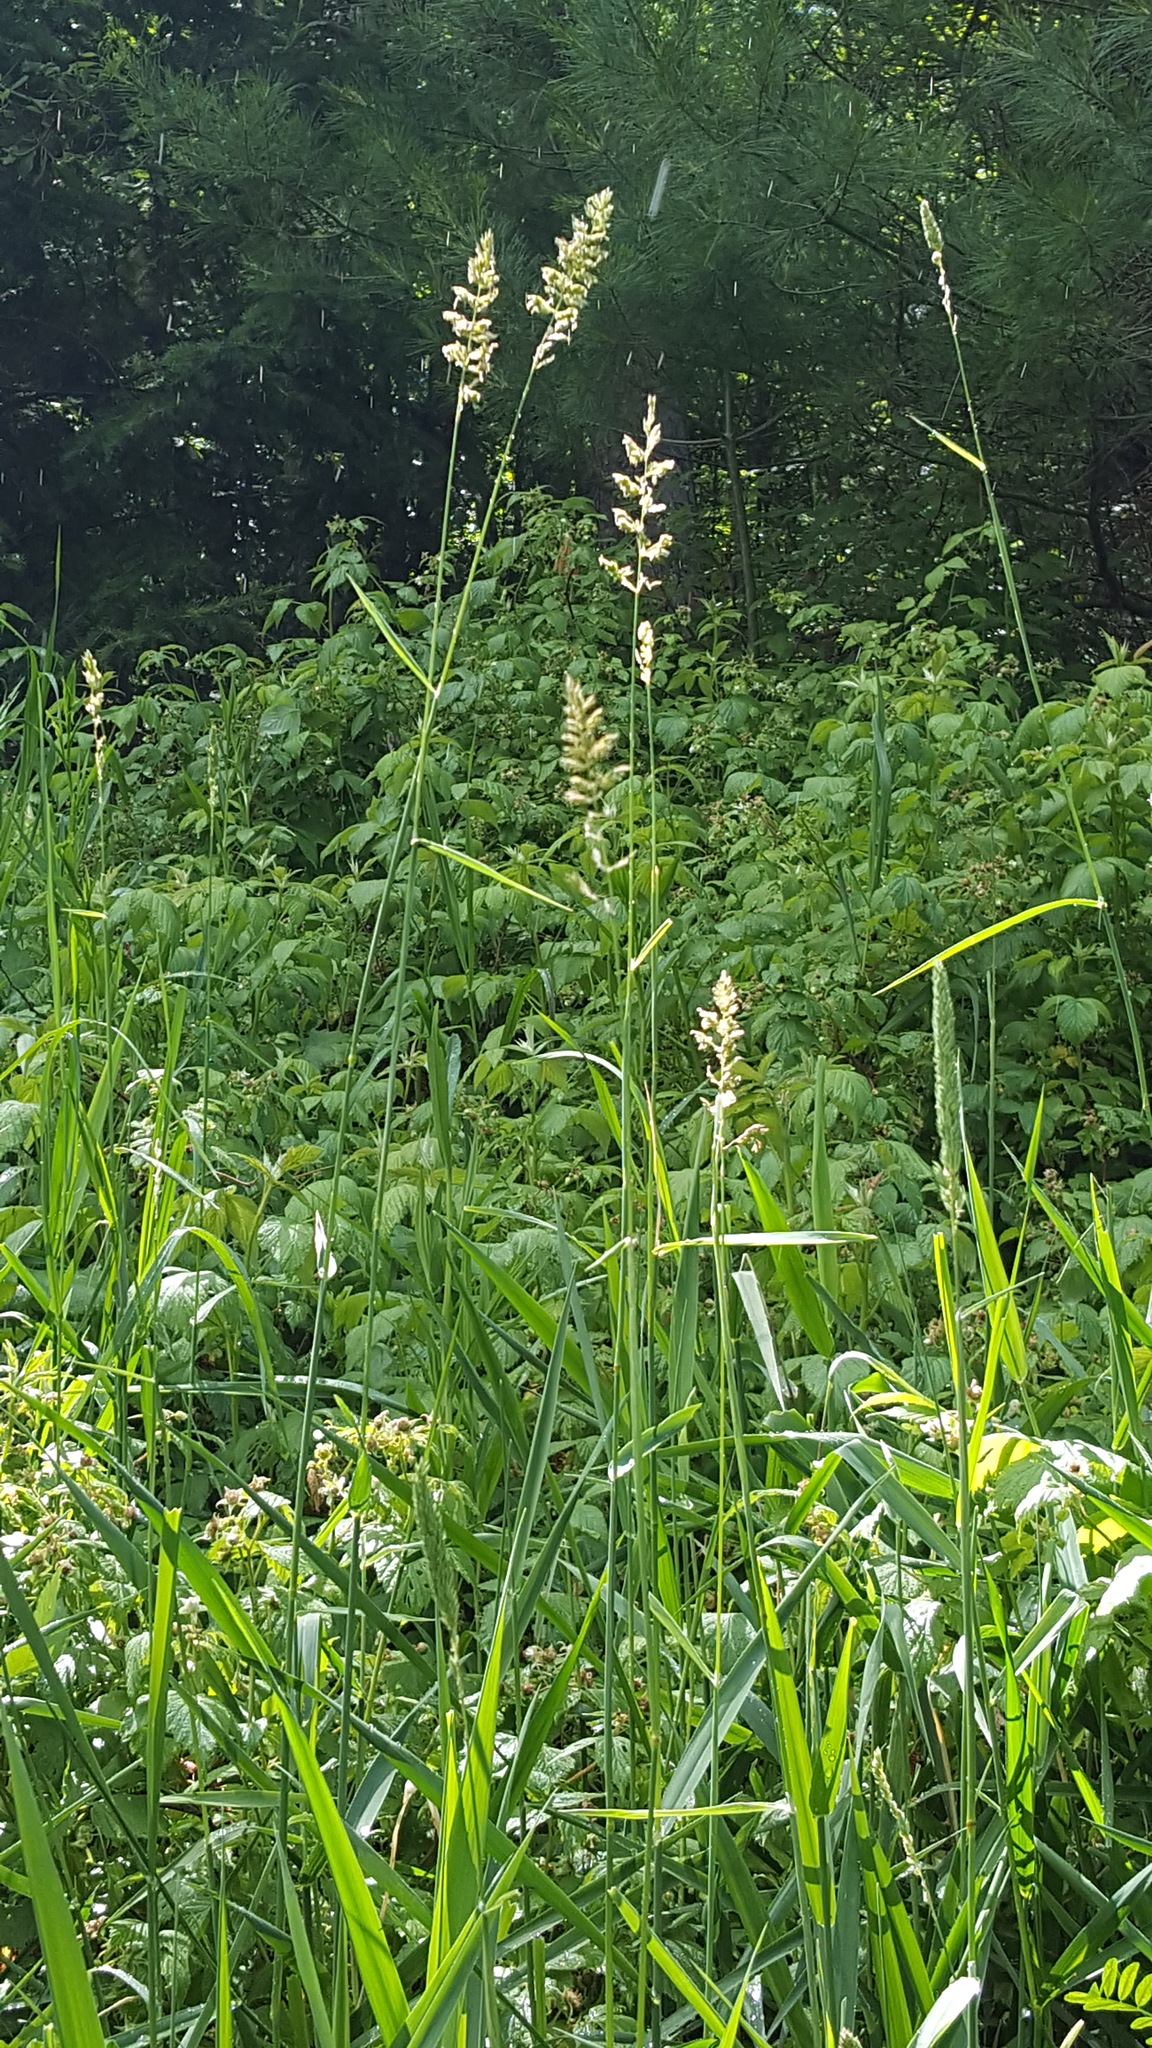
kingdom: Plantae
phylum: Tracheophyta
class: Liliopsida
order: Poales
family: Poaceae
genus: Phalaris
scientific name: Phalaris arundinacea
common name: Reed canary-grass
